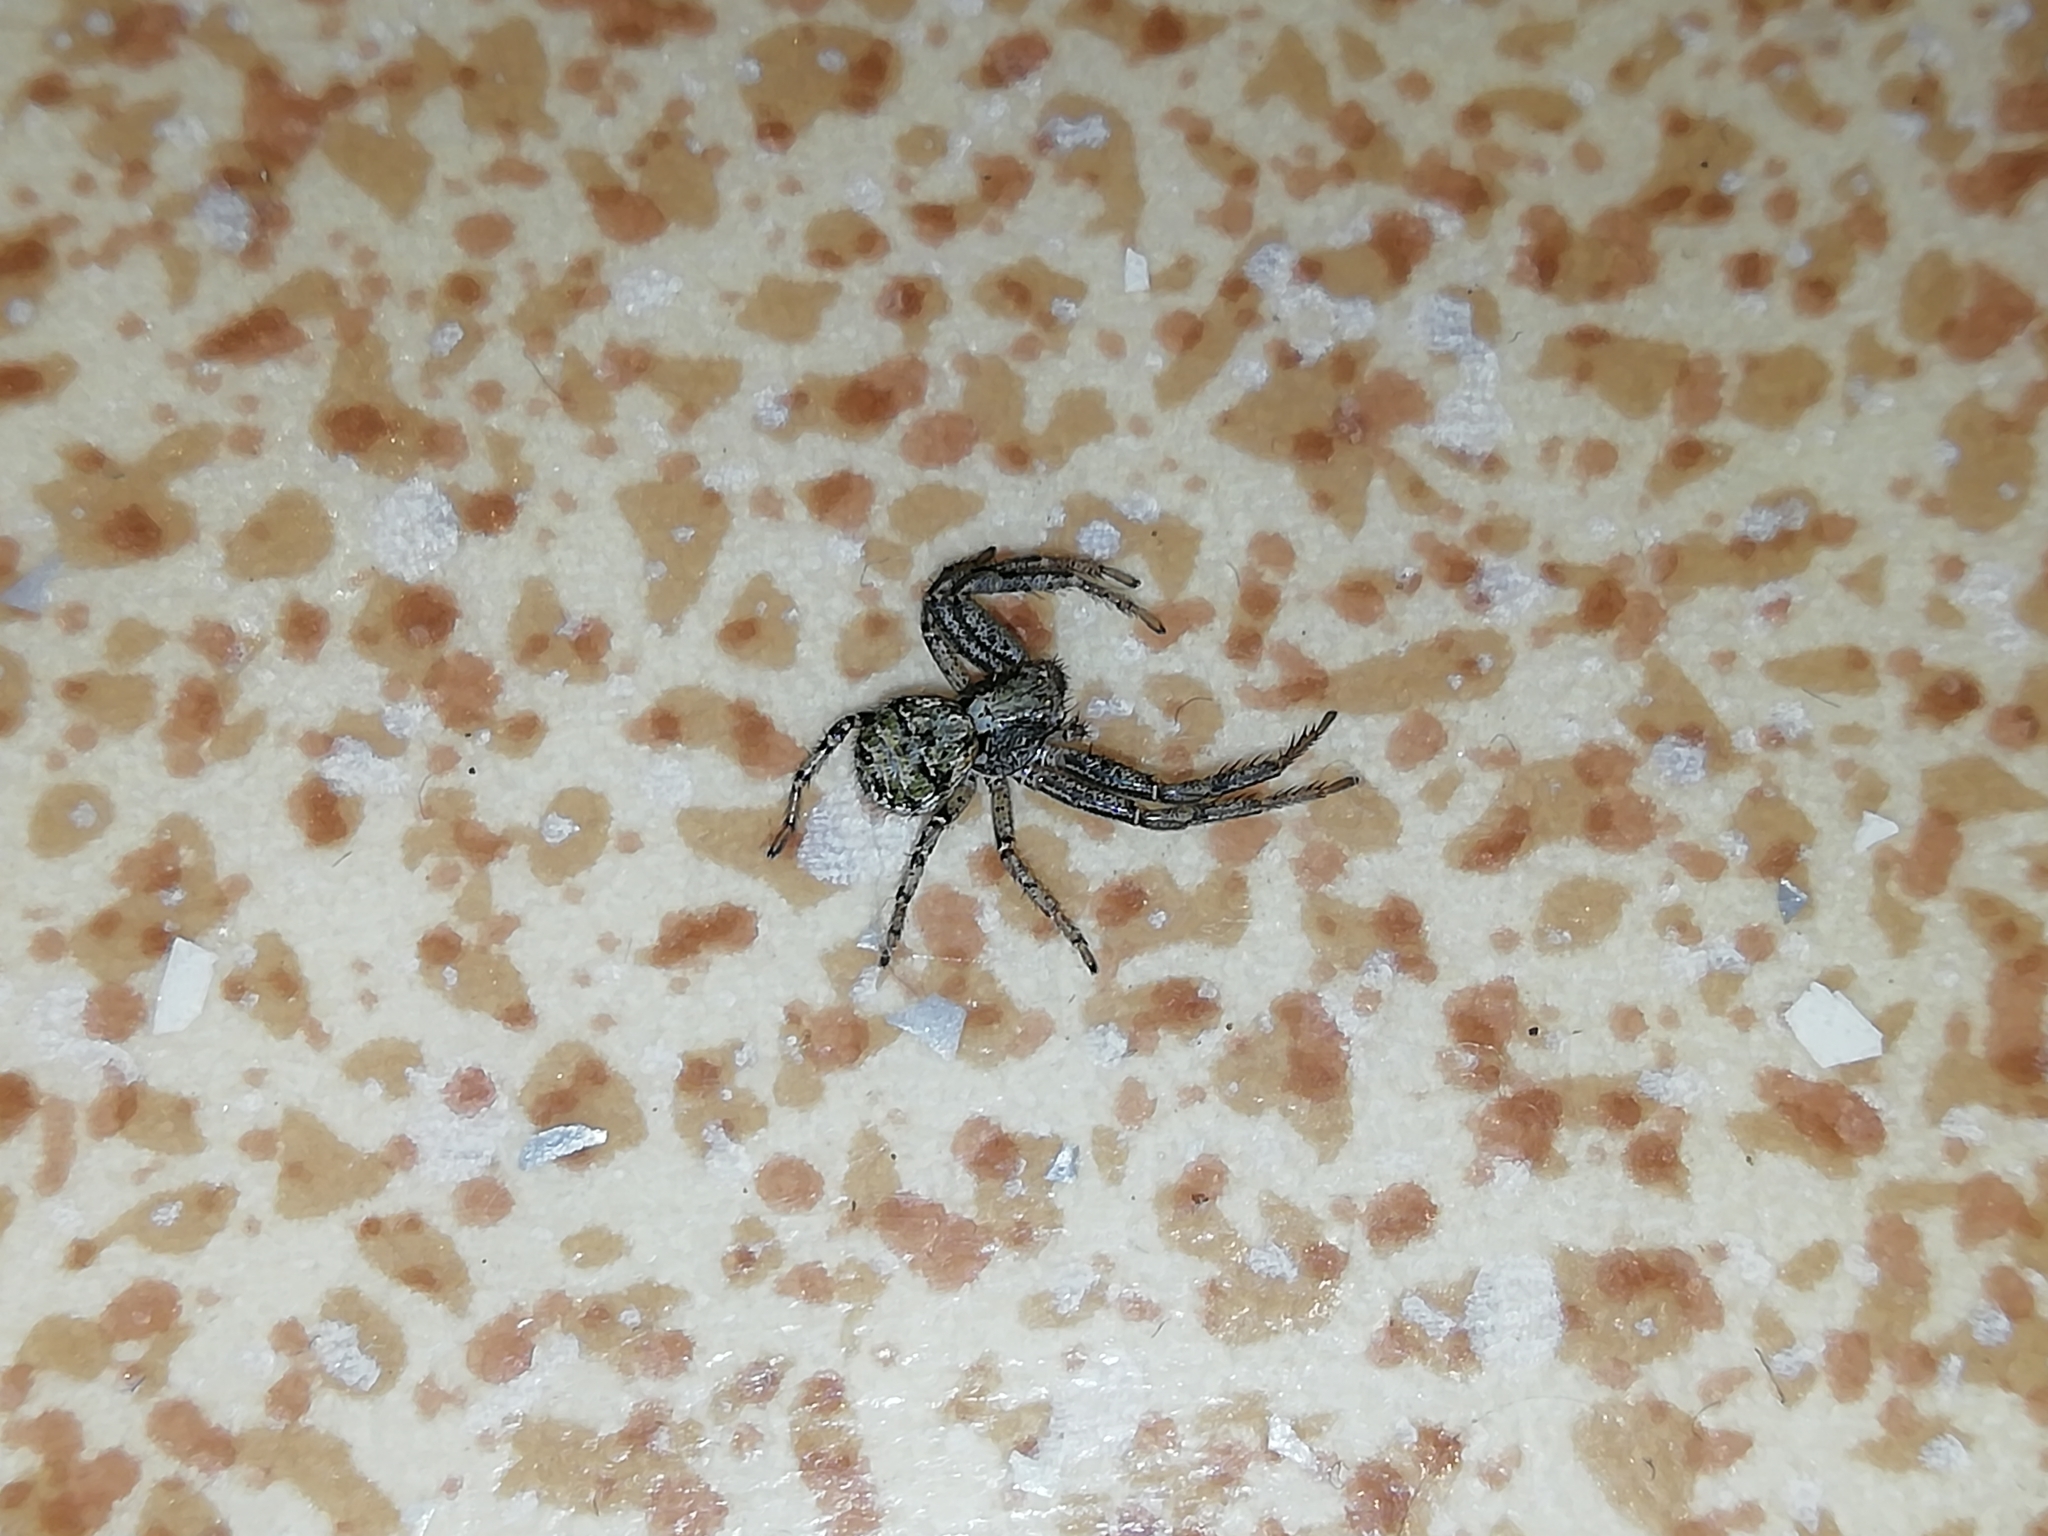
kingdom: Animalia
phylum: Arthropoda
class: Arachnida
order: Araneae
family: Thomisidae
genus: Xysticus
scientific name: Xysticus audax
